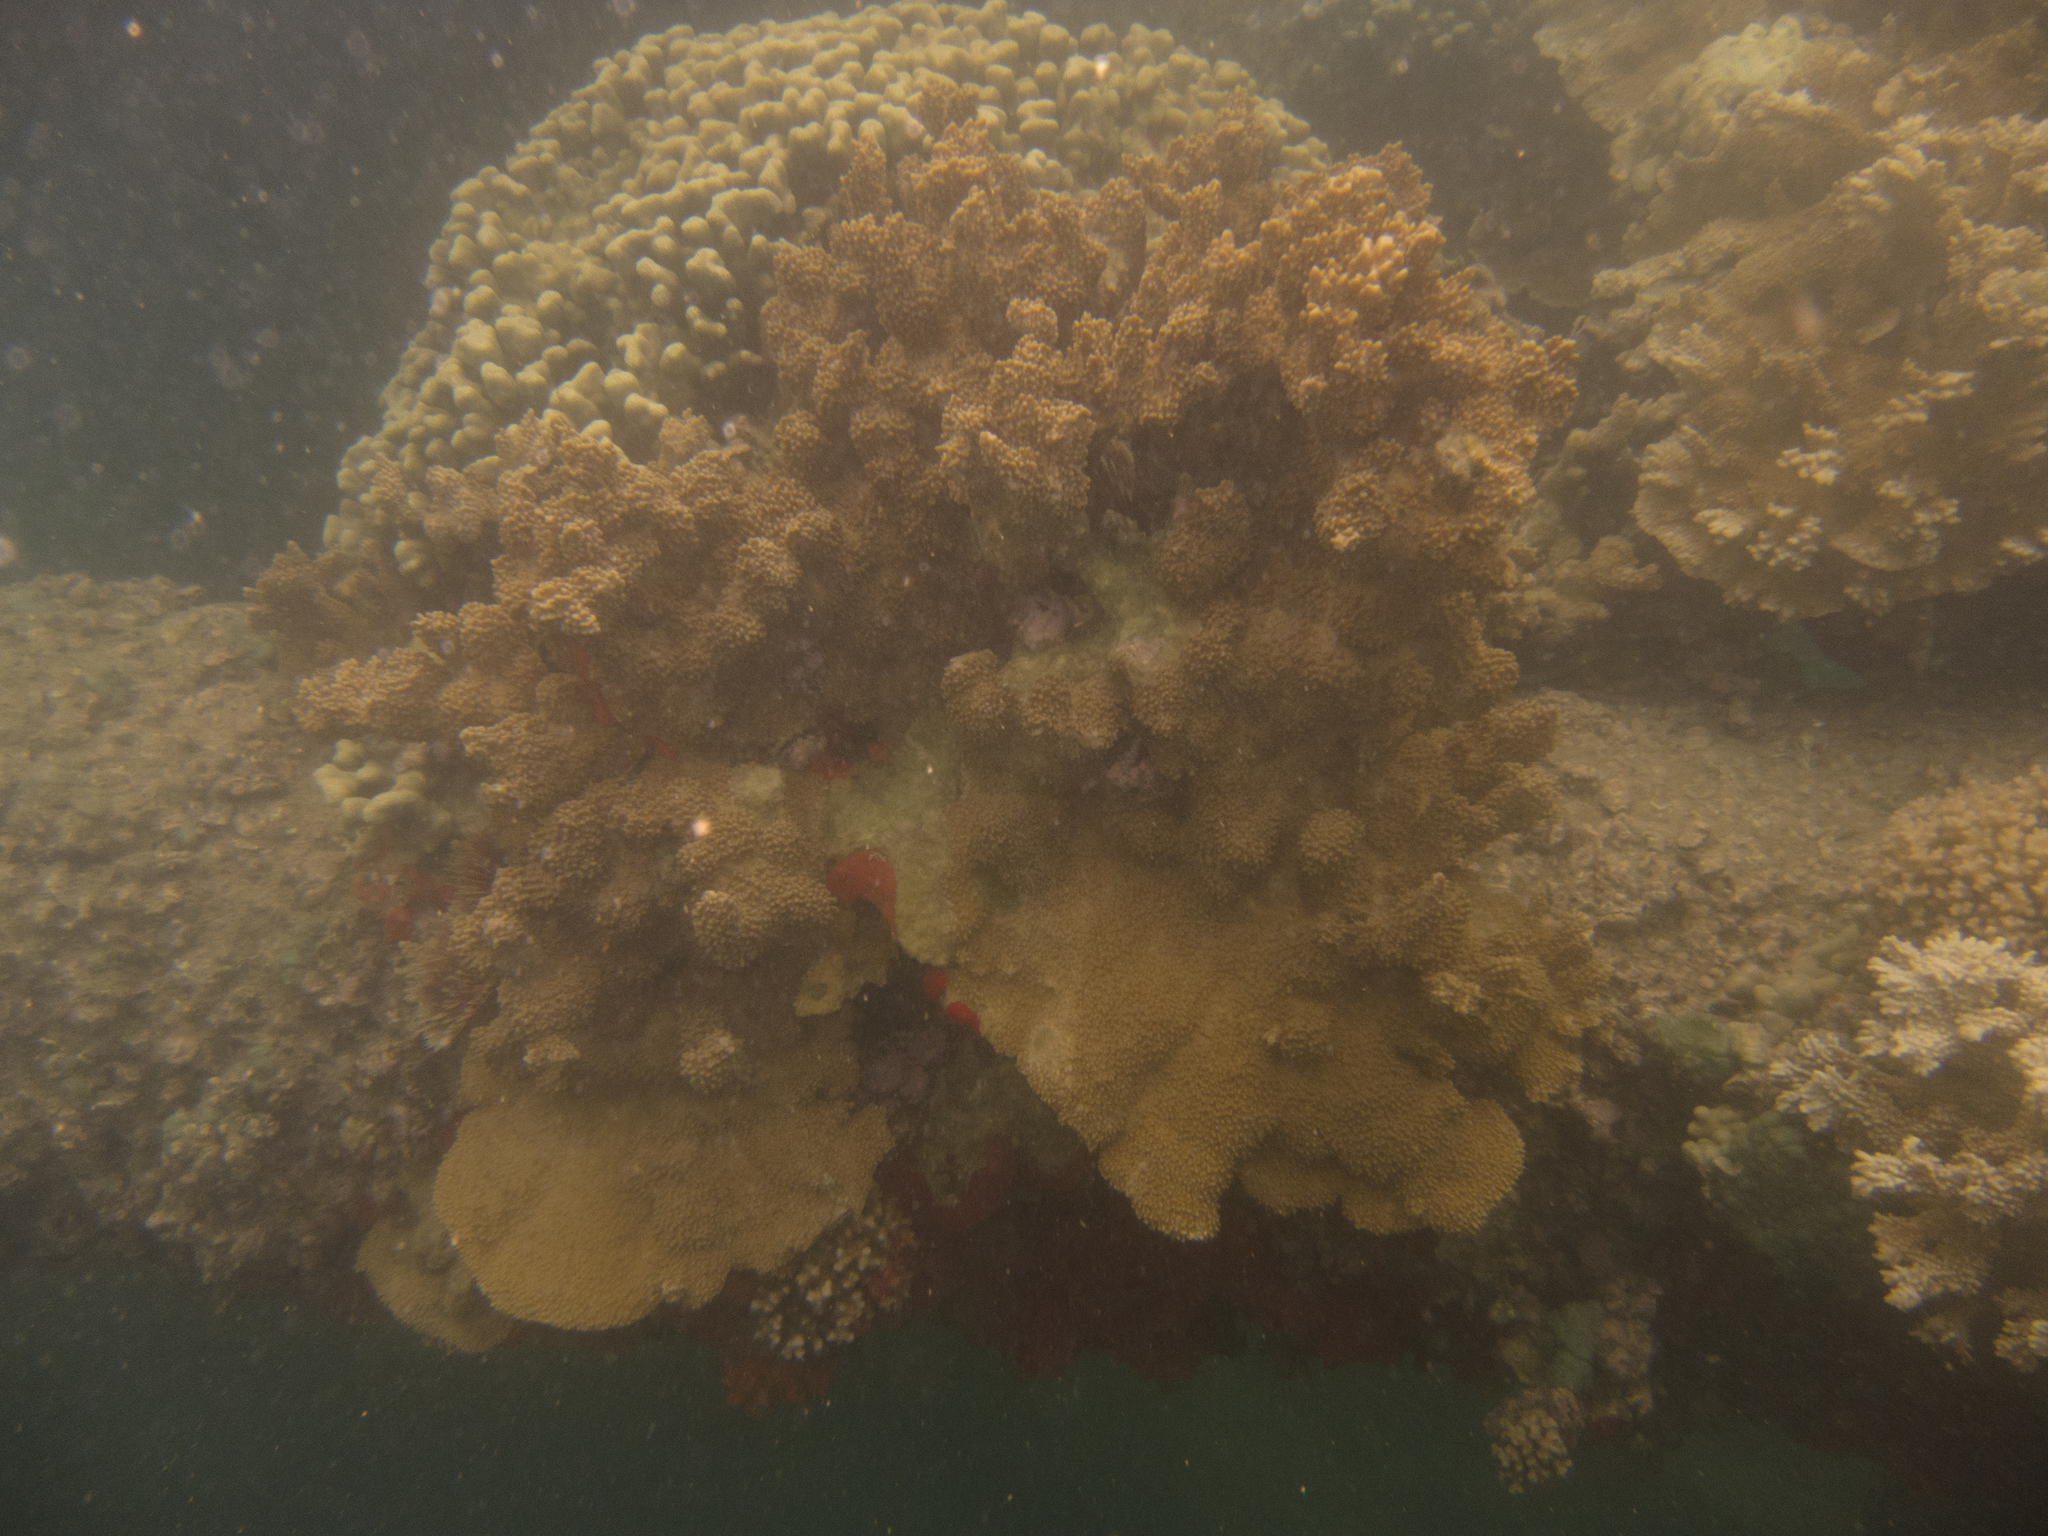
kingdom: Animalia
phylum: Cnidaria
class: Anthozoa
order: Scleractinia
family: Acroporidae
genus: Montipora
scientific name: Montipora capitata
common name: Pore coral
